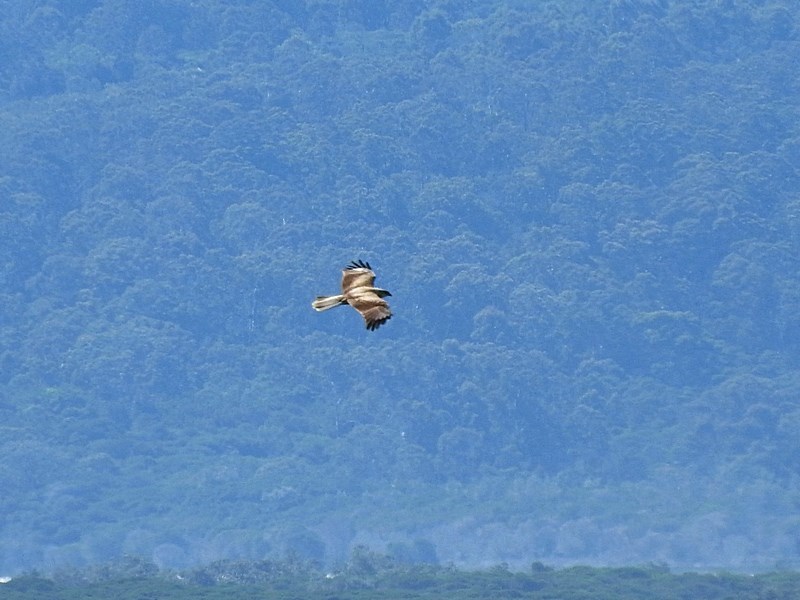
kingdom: Animalia
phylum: Chordata
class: Aves
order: Accipitriformes
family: Accipitridae
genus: Haliastur
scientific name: Haliastur sphenurus
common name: Whistling kite
